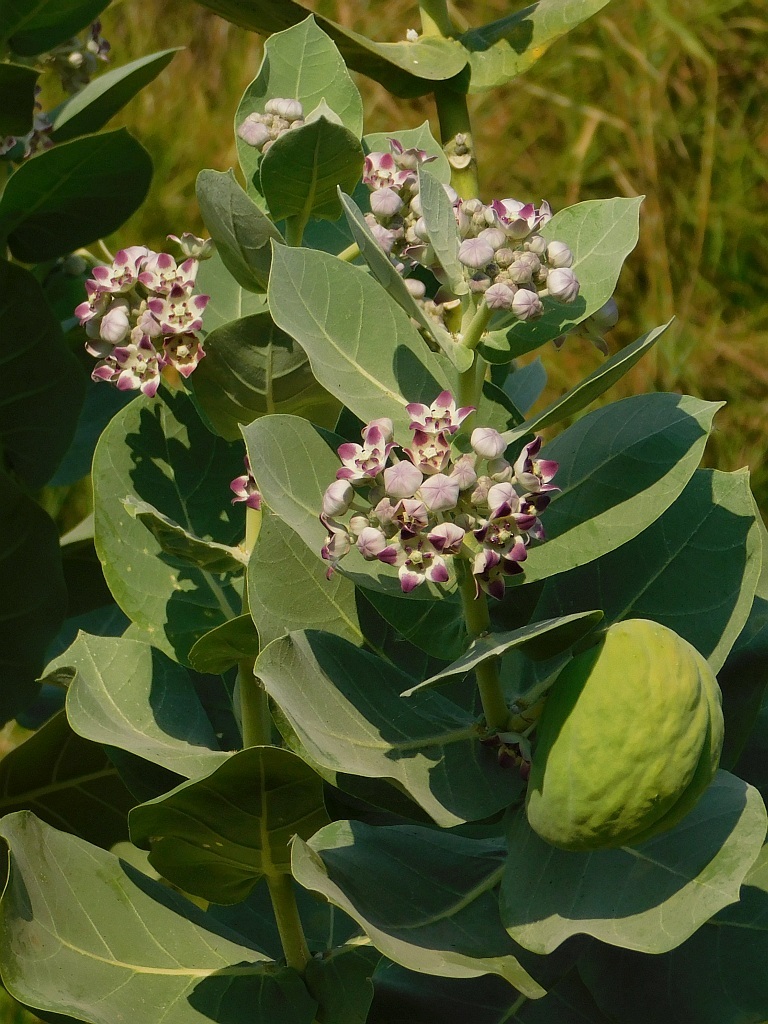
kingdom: Plantae
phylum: Tracheophyta
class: Magnoliopsida
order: Gentianales
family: Apocynaceae
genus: Calotropis
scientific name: Calotropis procera
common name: Roostertree
